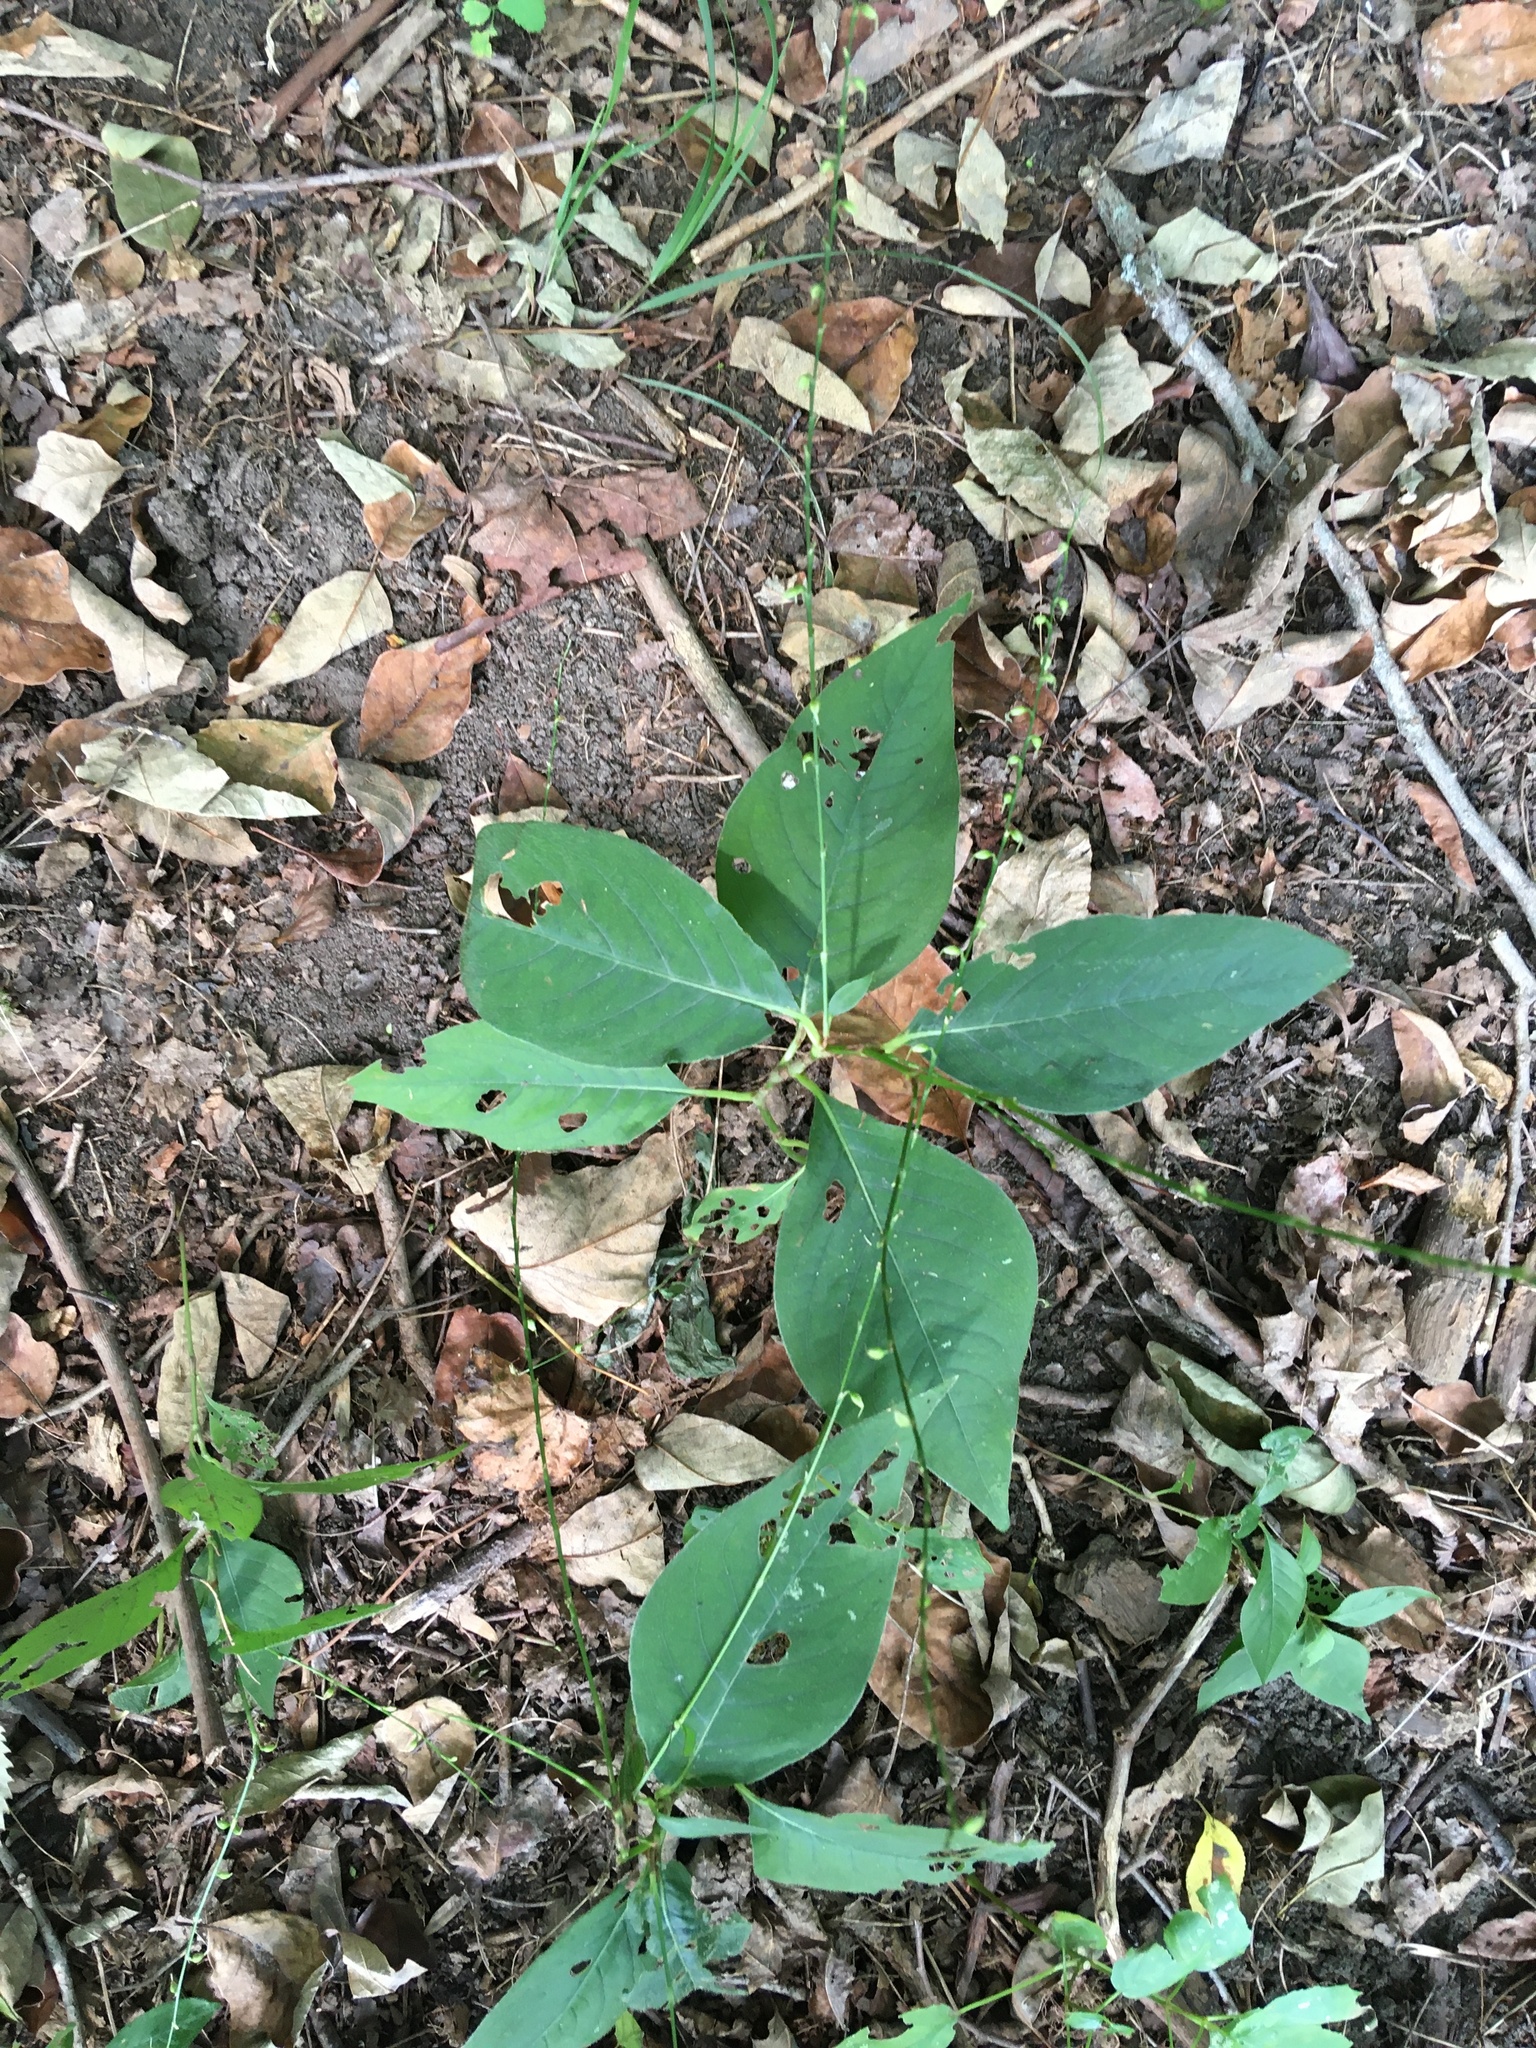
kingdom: Plantae
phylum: Tracheophyta
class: Magnoliopsida
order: Caryophyllales
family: Polygonaceae
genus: Persicaria
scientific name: Persicaria virginiana
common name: Jumpseed
